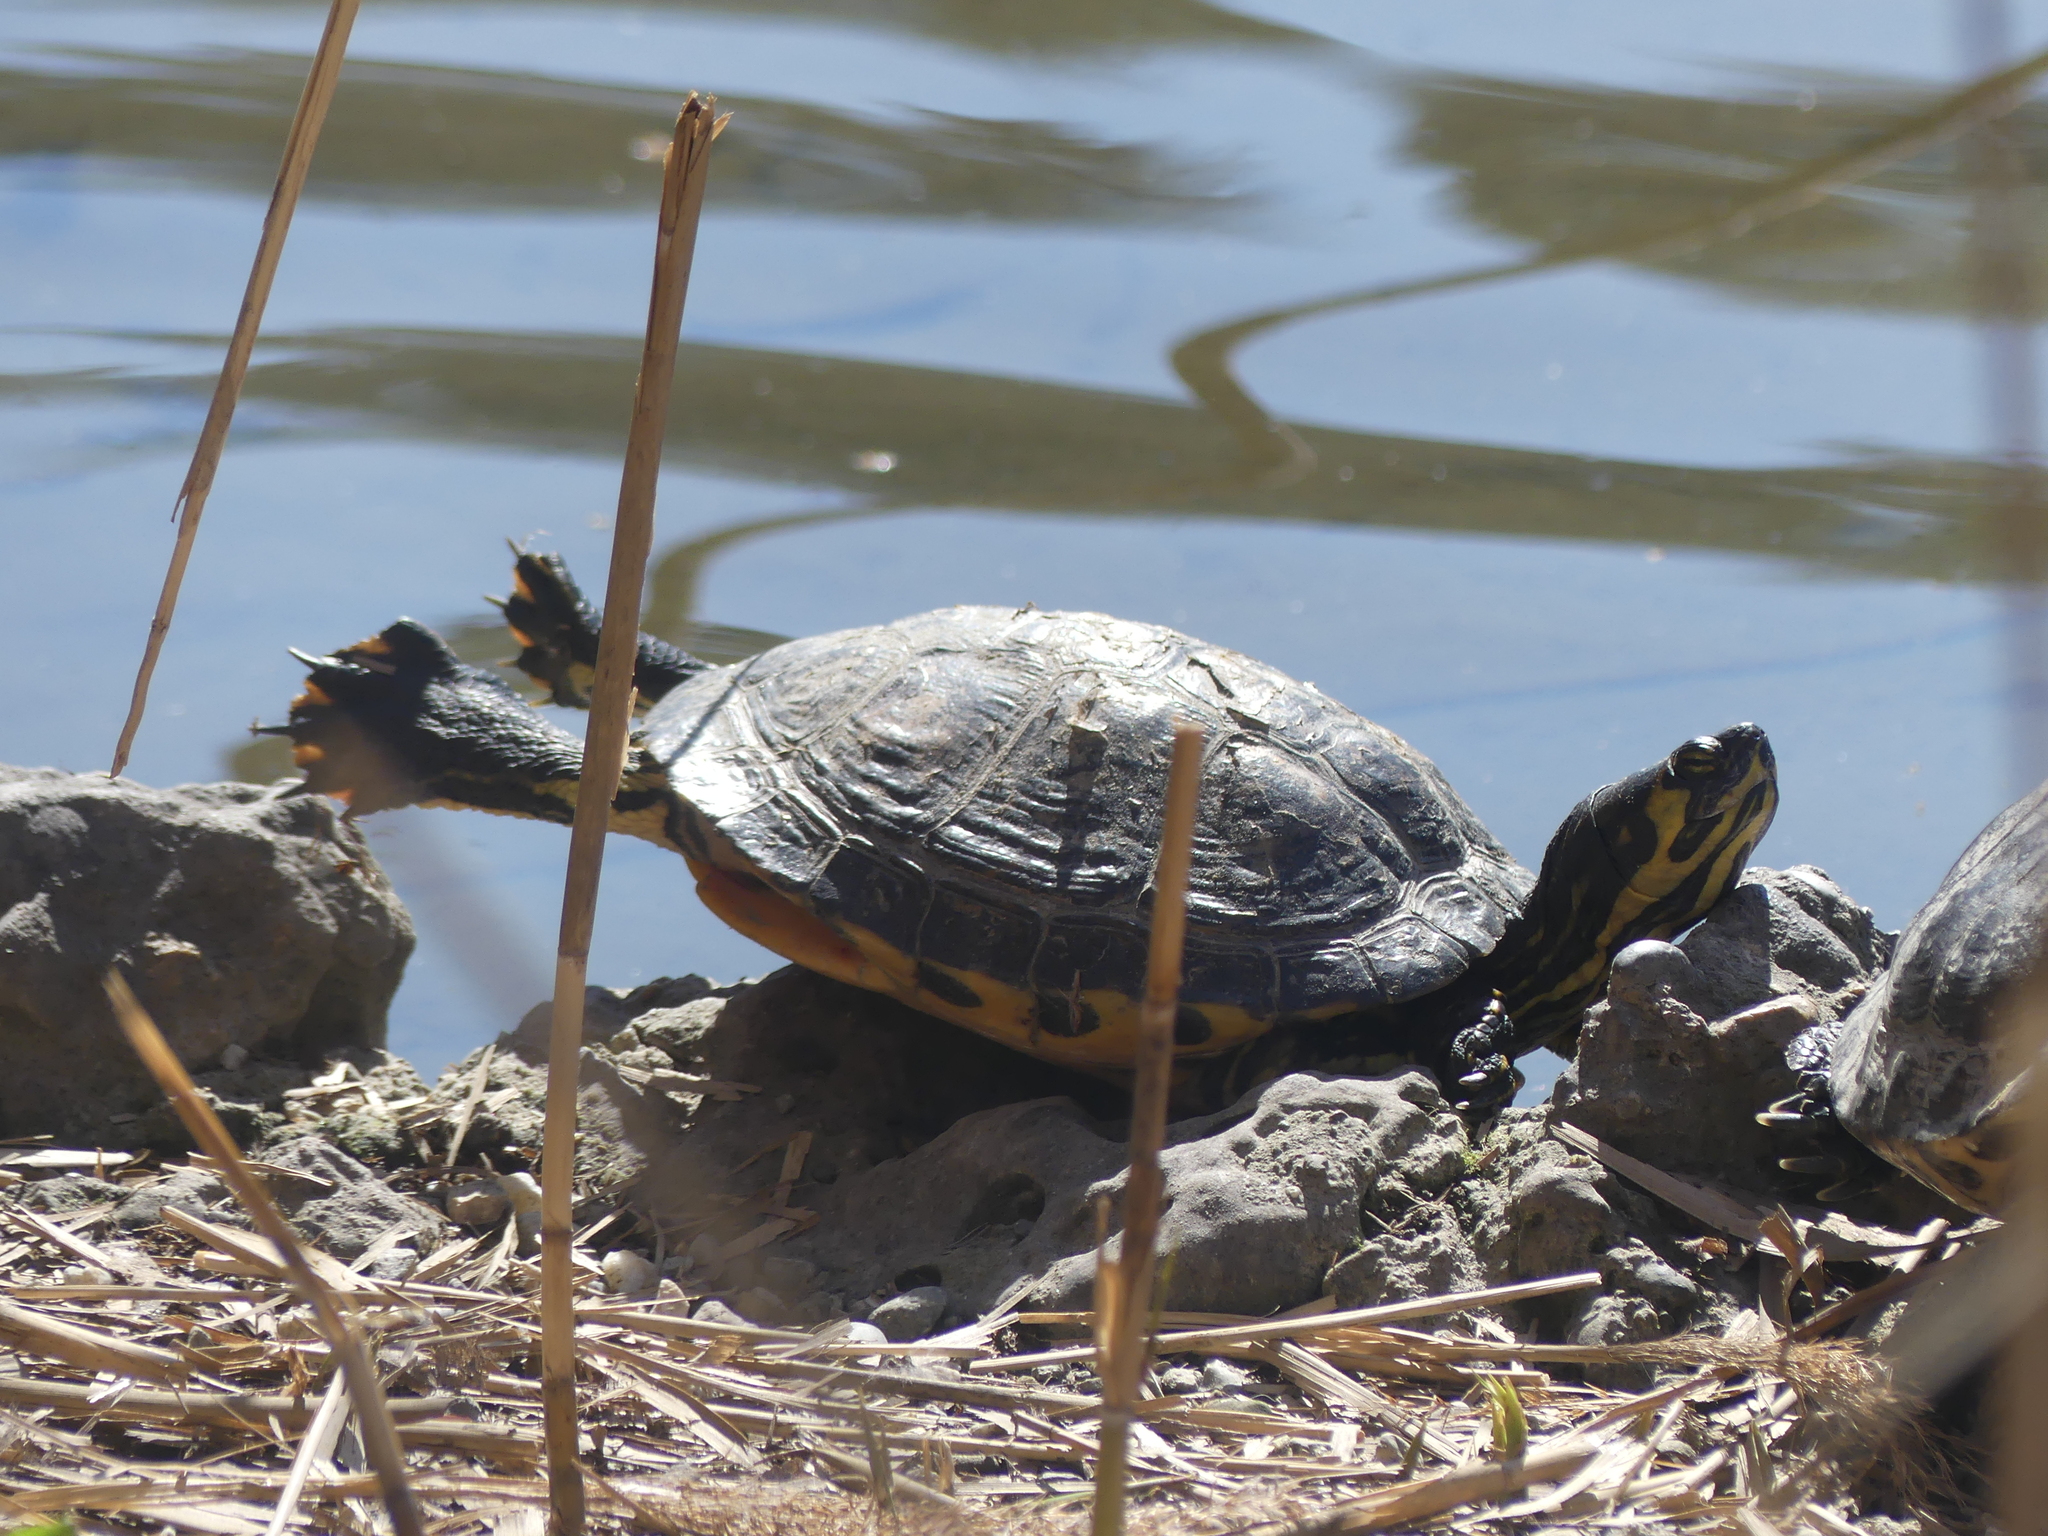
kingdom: Animalia
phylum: Chordata
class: Testudines
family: Emydidae
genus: Trachemys
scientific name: Trachemys scripta
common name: Slider
